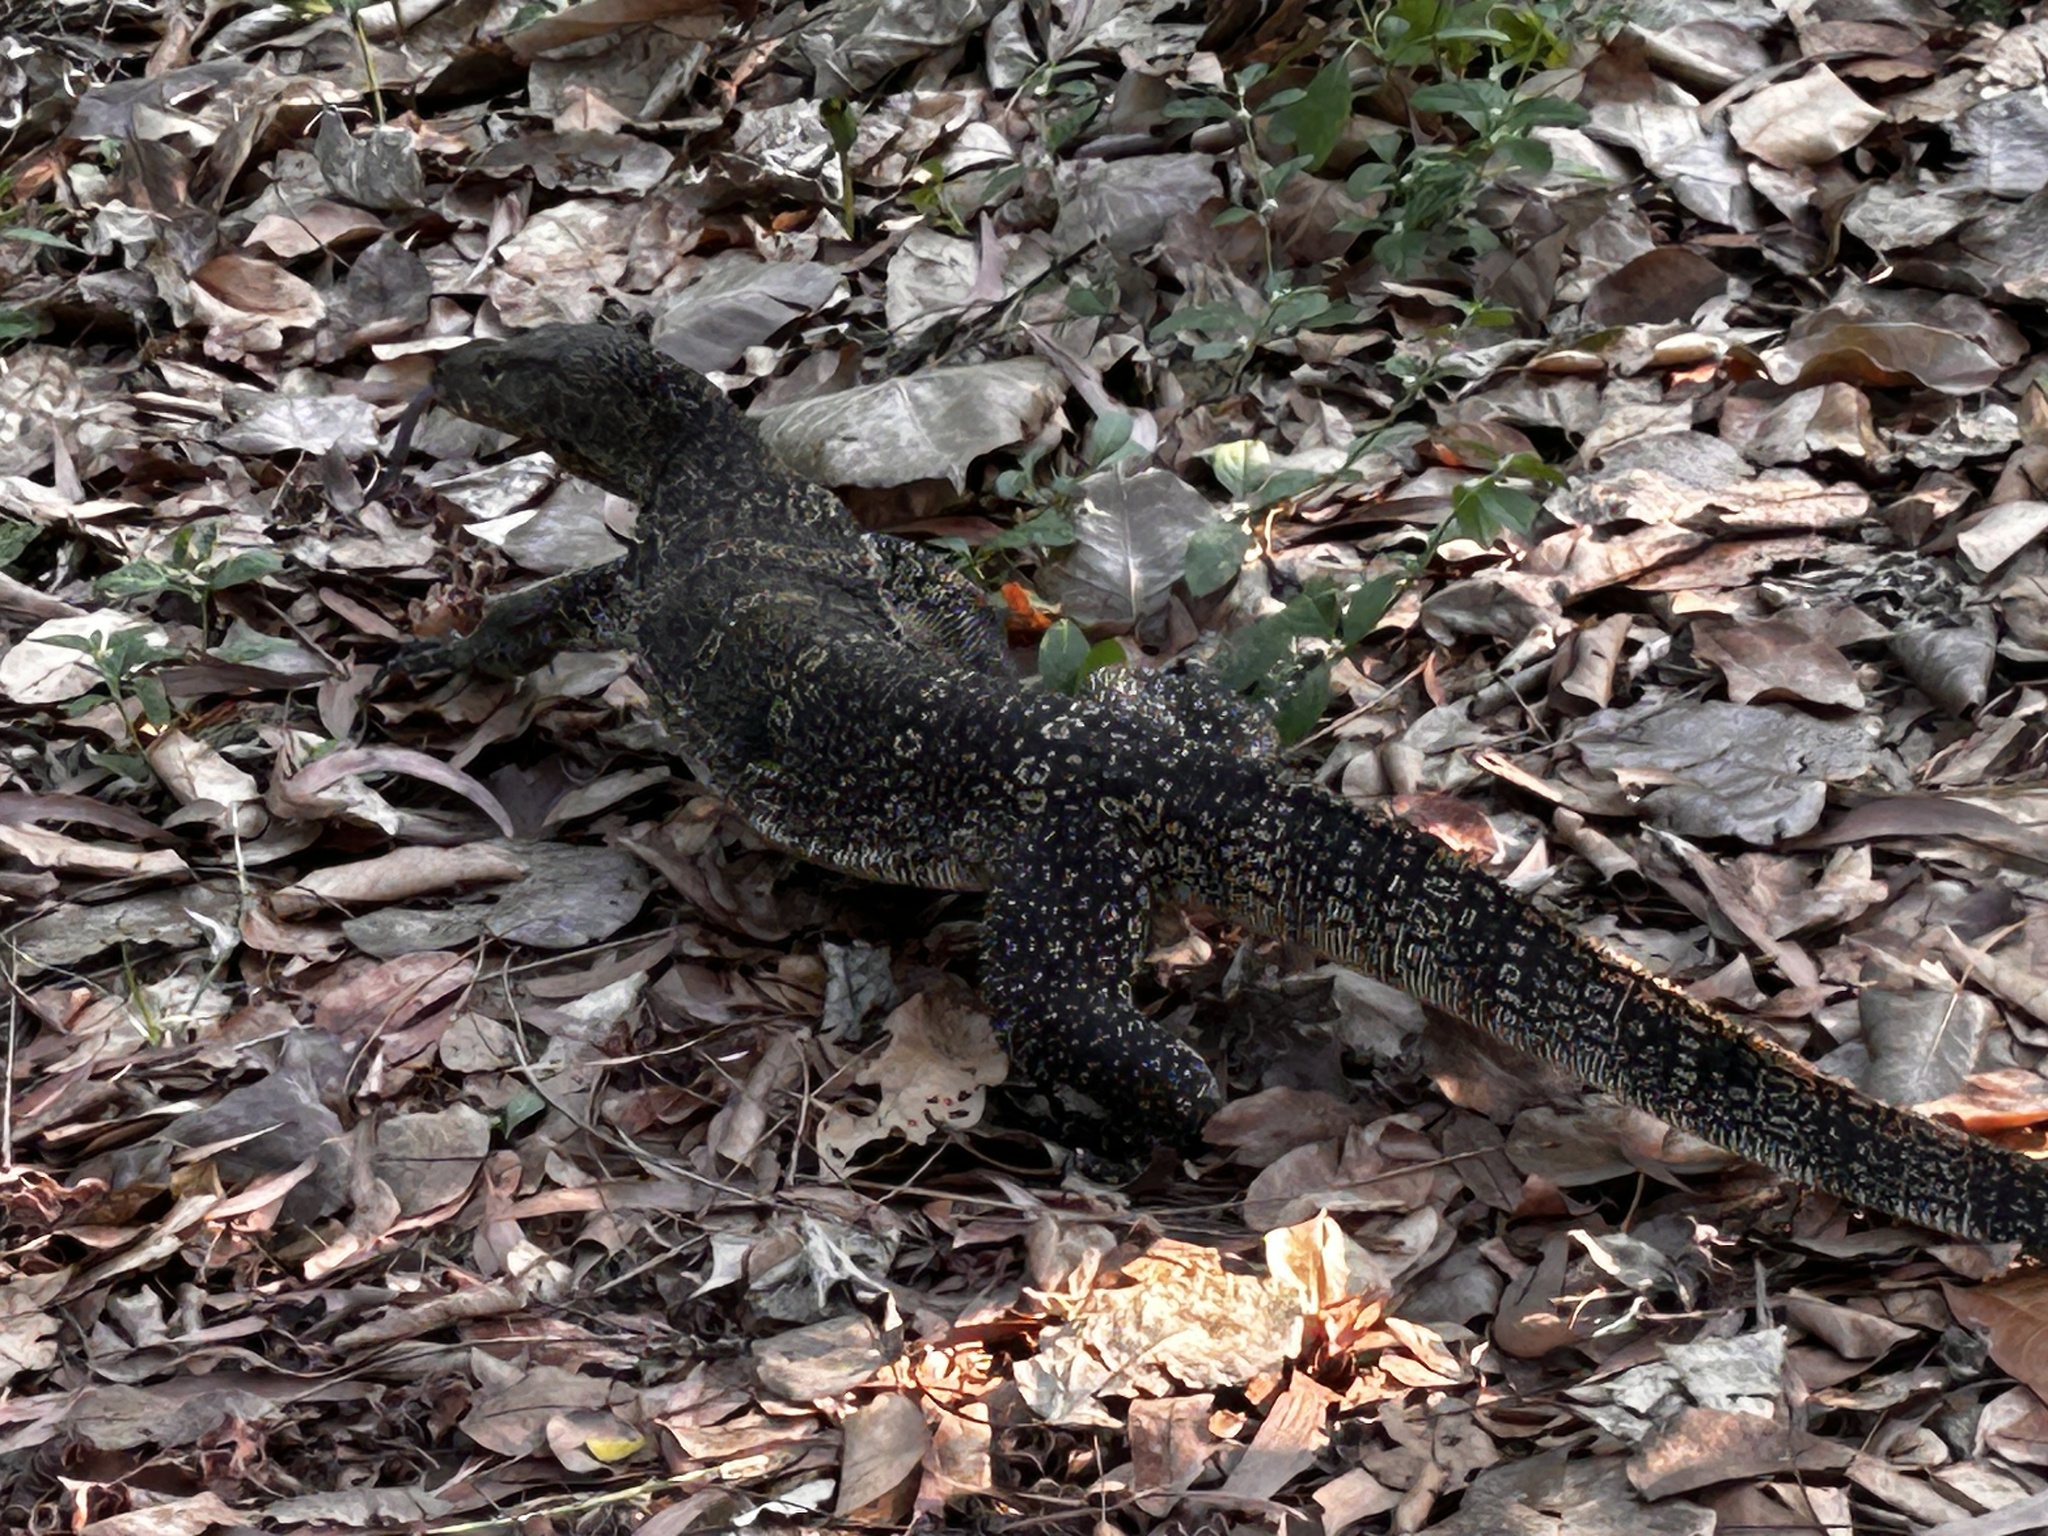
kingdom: Animalia
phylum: Chordata
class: Squamata
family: Varanidae
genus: Varanus
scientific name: Varanus salvator
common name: Common water monitor
